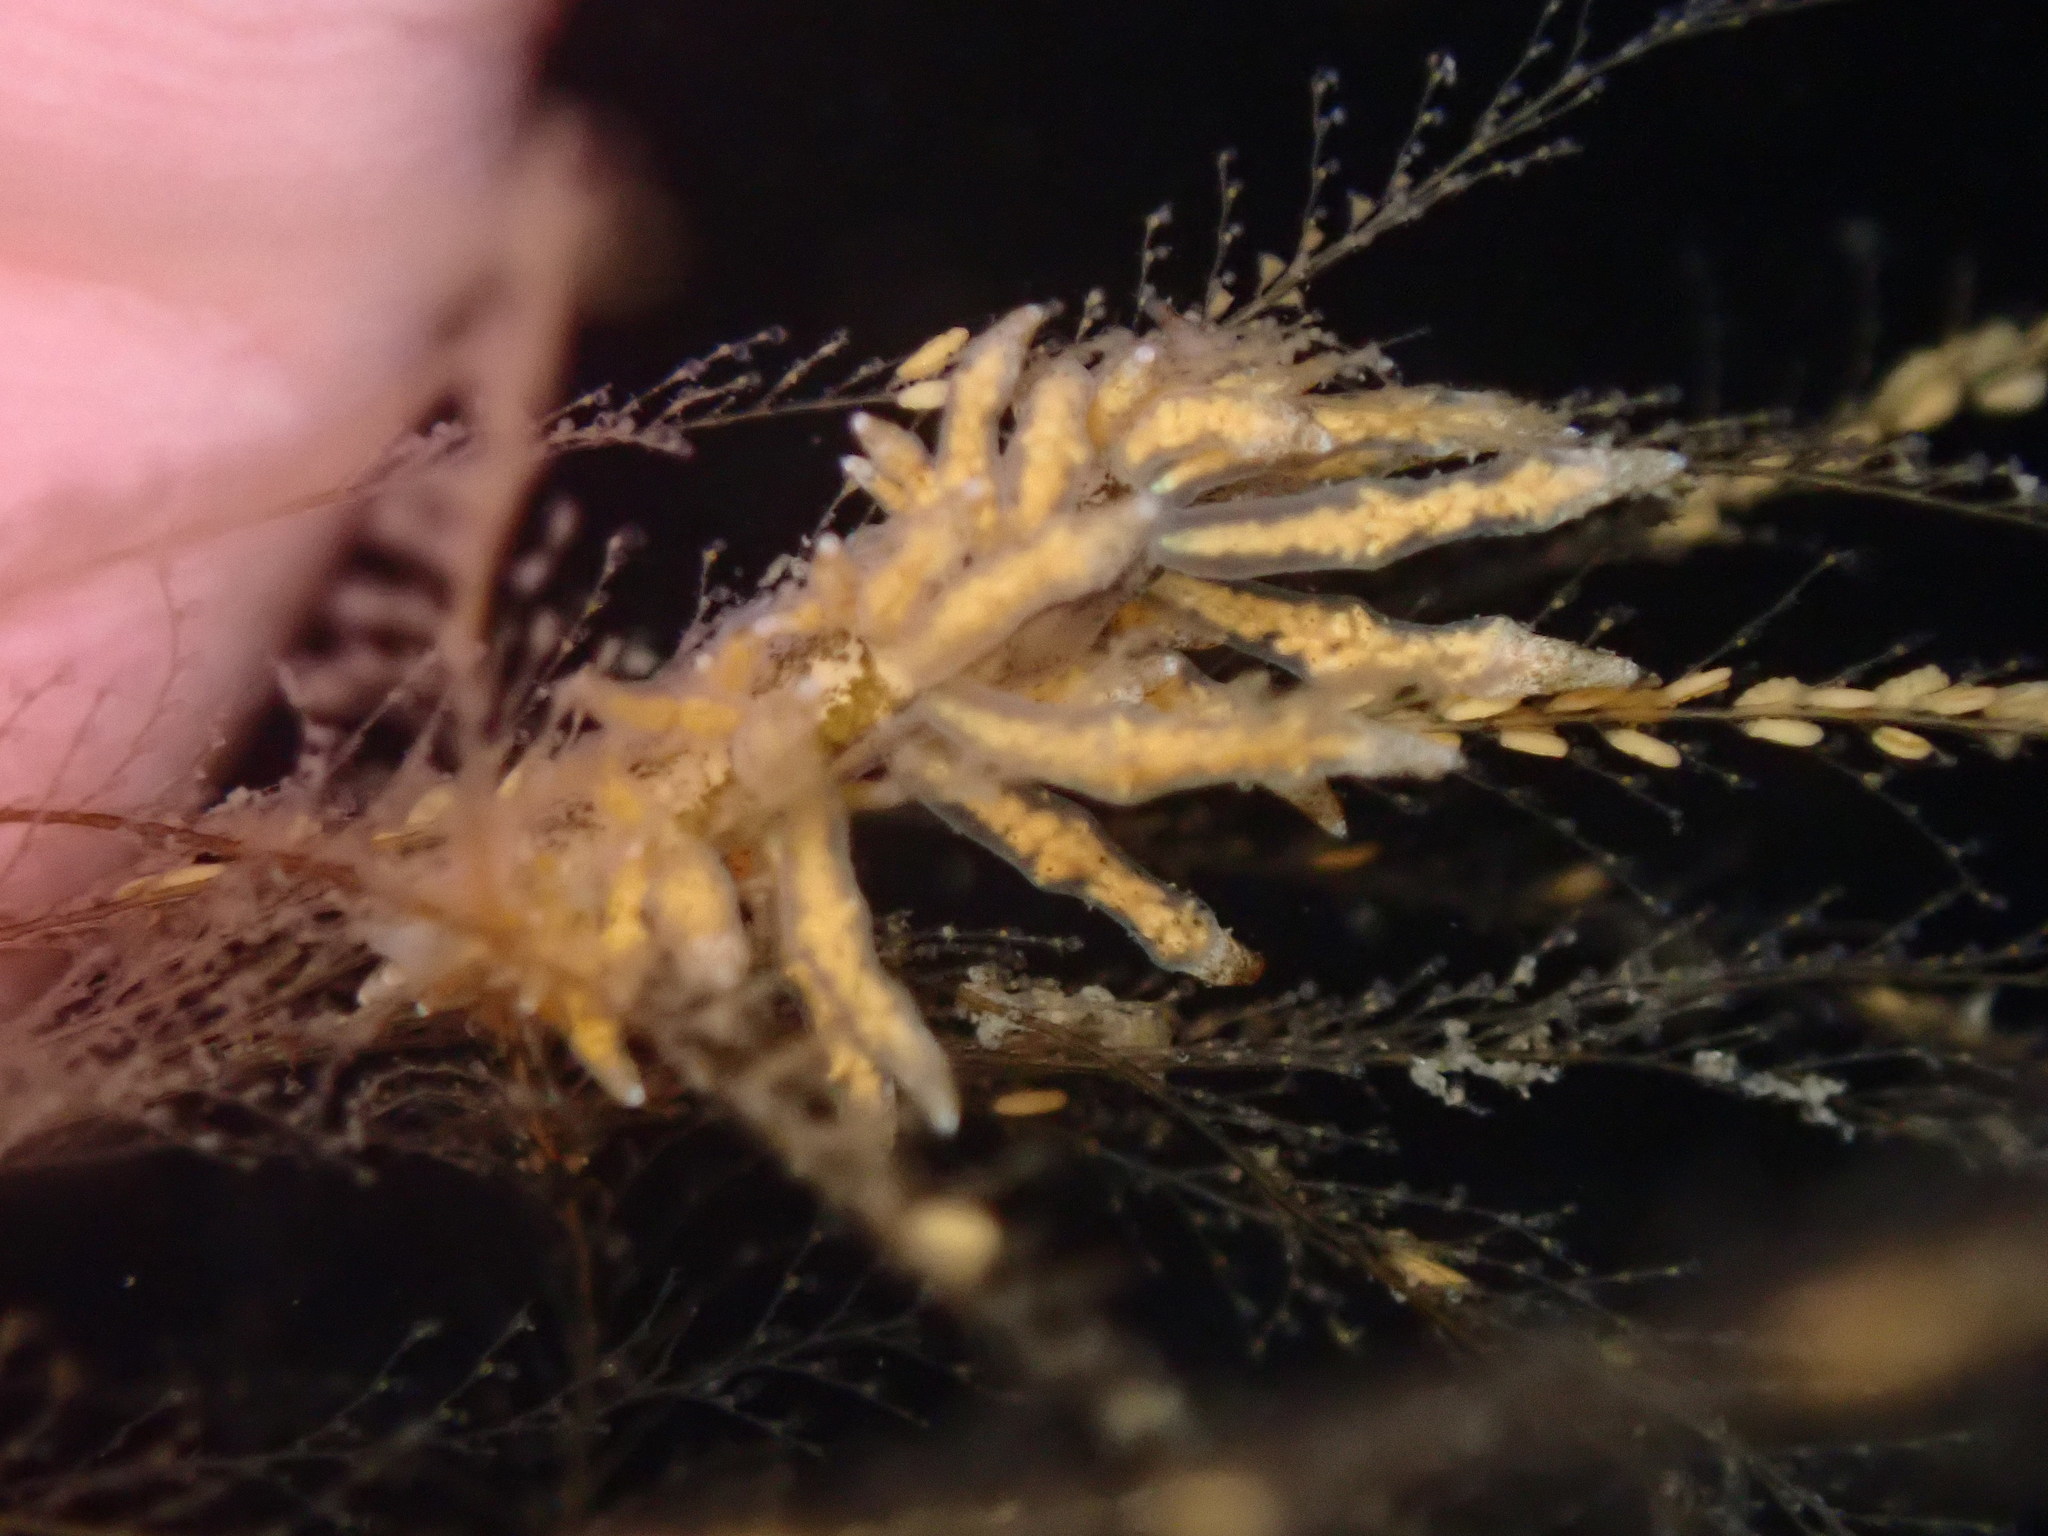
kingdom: Animalia
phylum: Mollusca
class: Gastropoda
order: Nudibranchia
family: Eubranchidae
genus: Eubranchus
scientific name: Eubranchus rustyus
